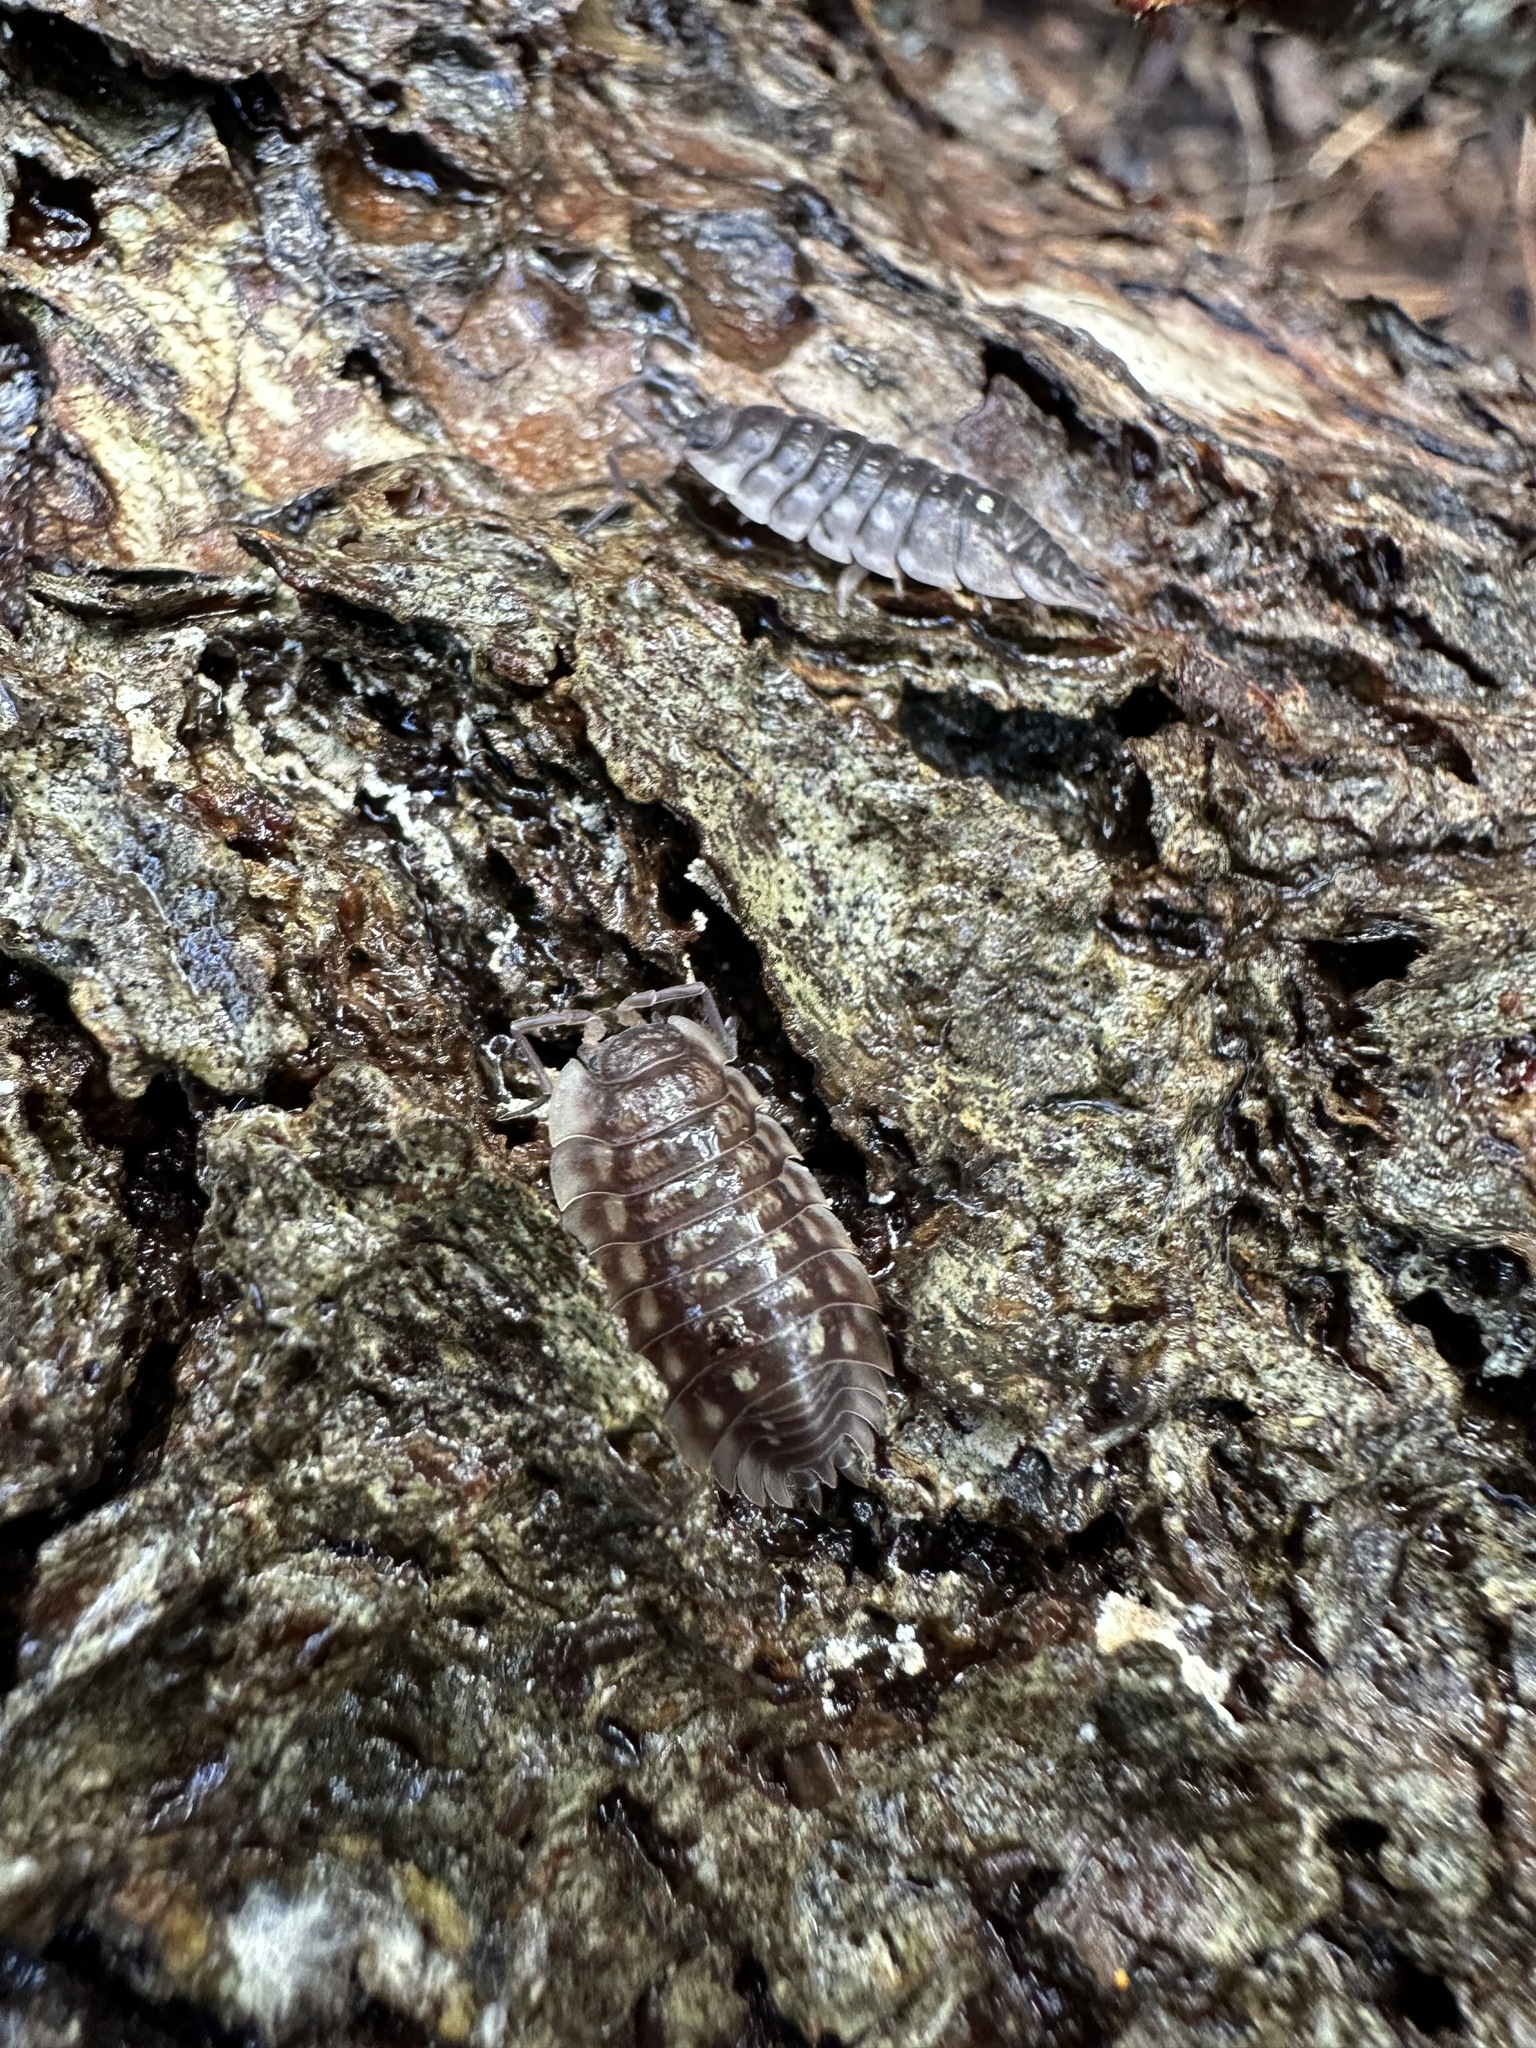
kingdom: Animalia
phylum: Arthropoda
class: Malacostraca
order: Isopoda
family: Oniscidae
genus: Oniscus
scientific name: Oniscus asellus
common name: Common shiny woodlouse
